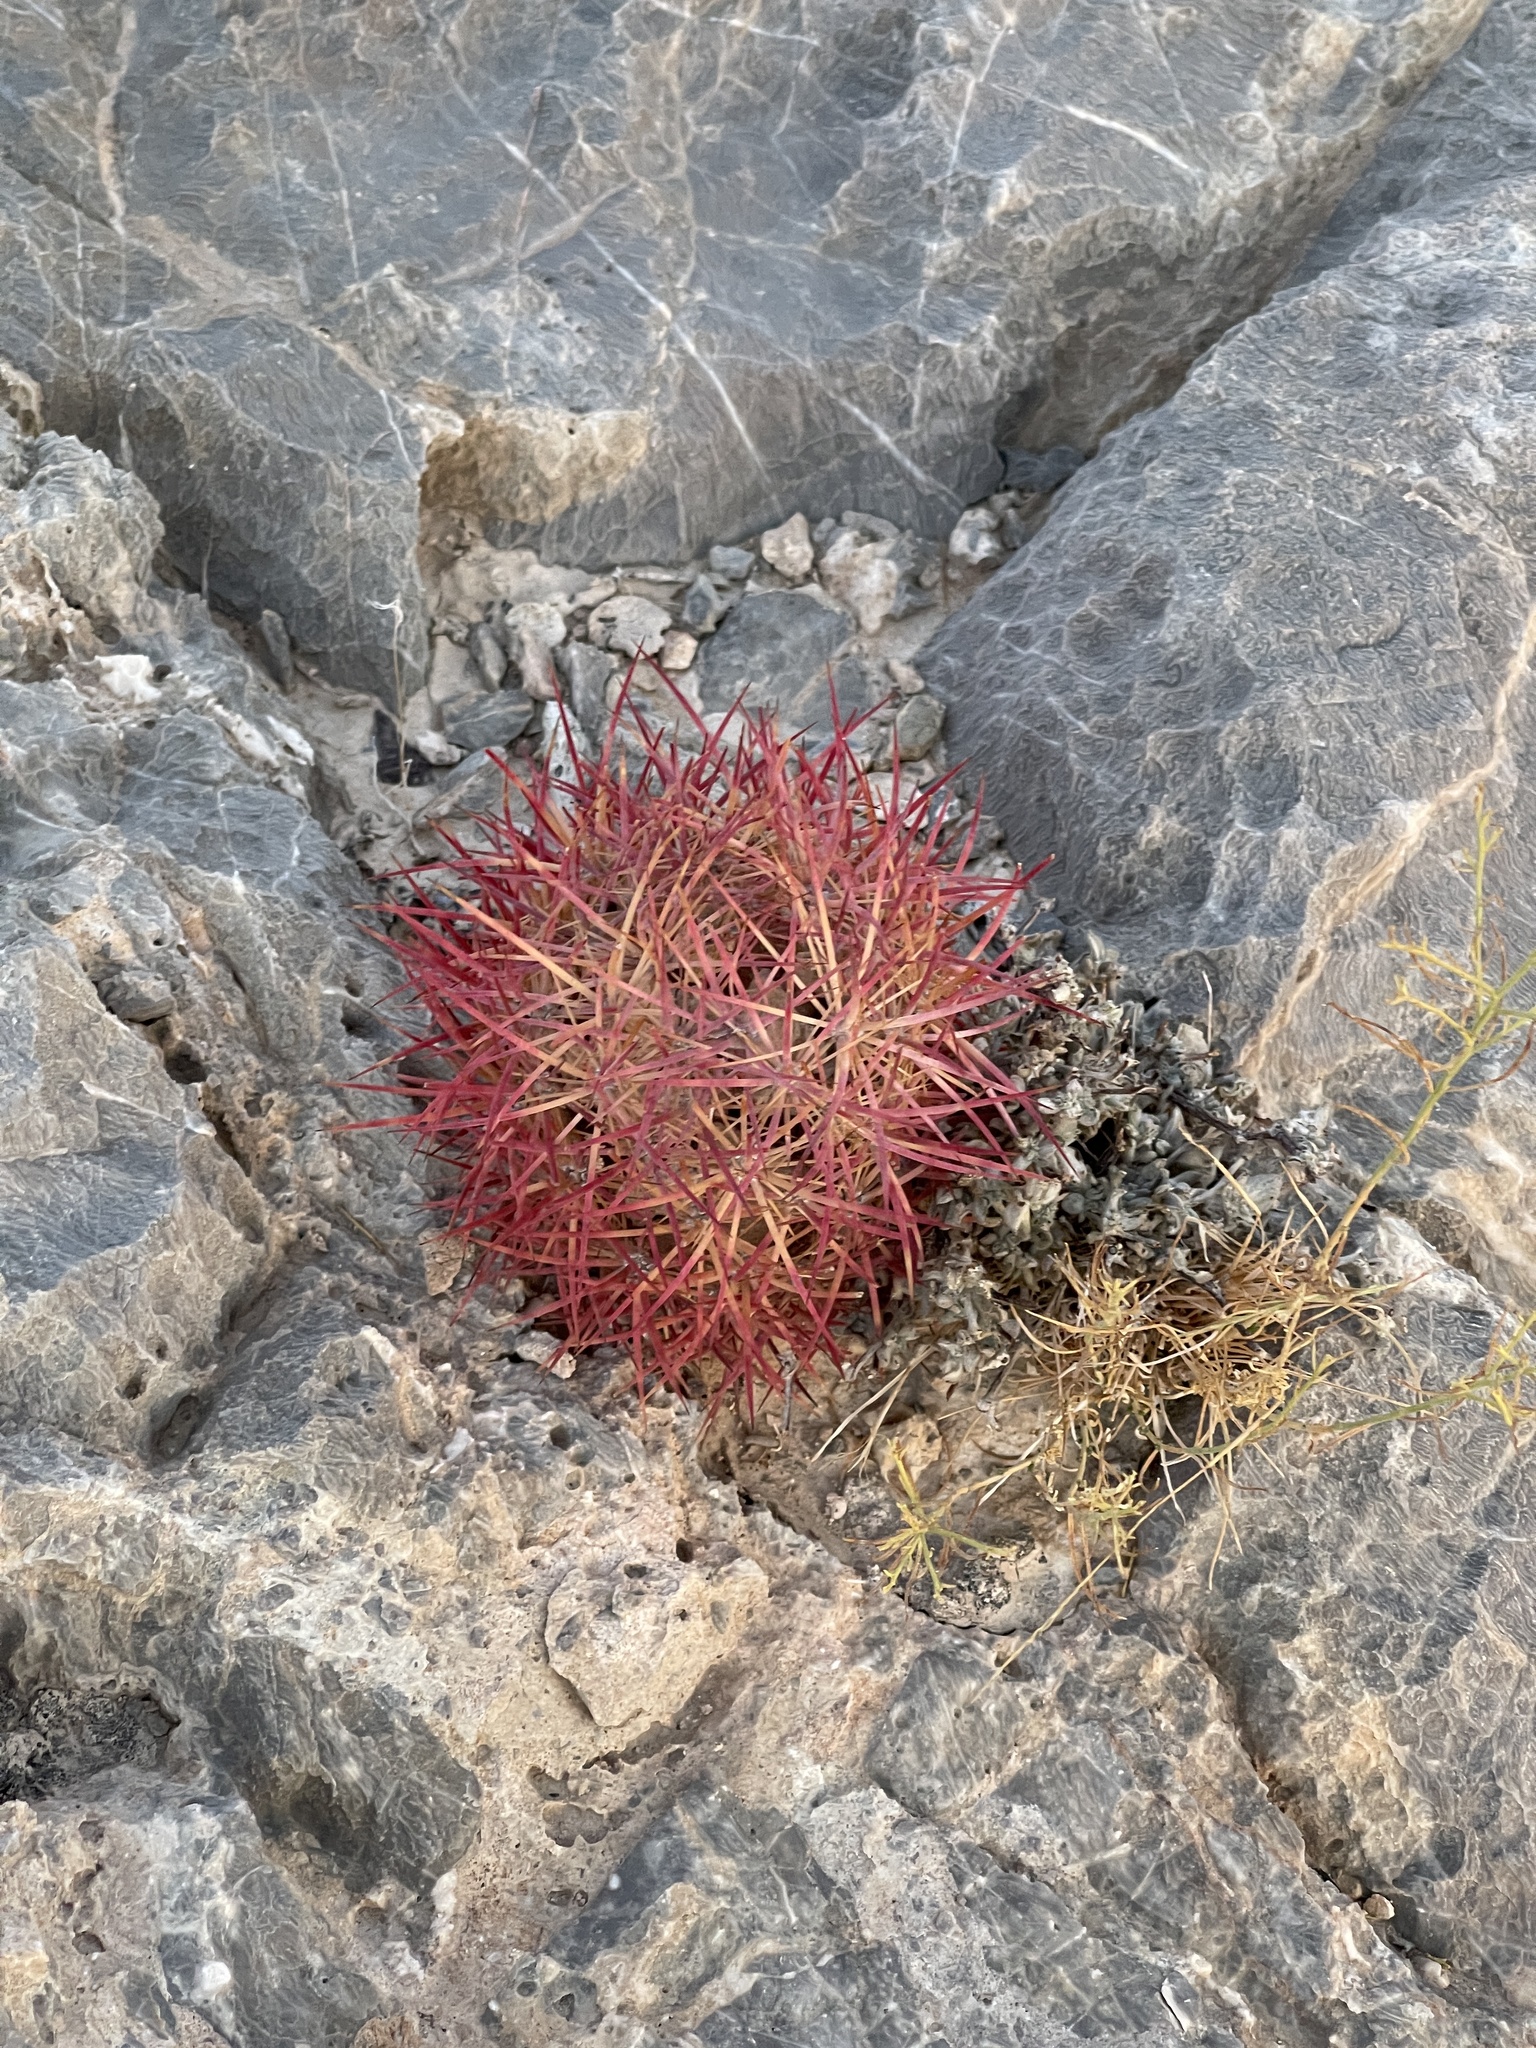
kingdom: Plantae
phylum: Tracheophyta
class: Magnoliopsida
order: Caryophyllales
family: Cactaceae
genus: Sclerocactus
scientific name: Sclerocactus johnsonii
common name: Eight-spine fishhook cactus
